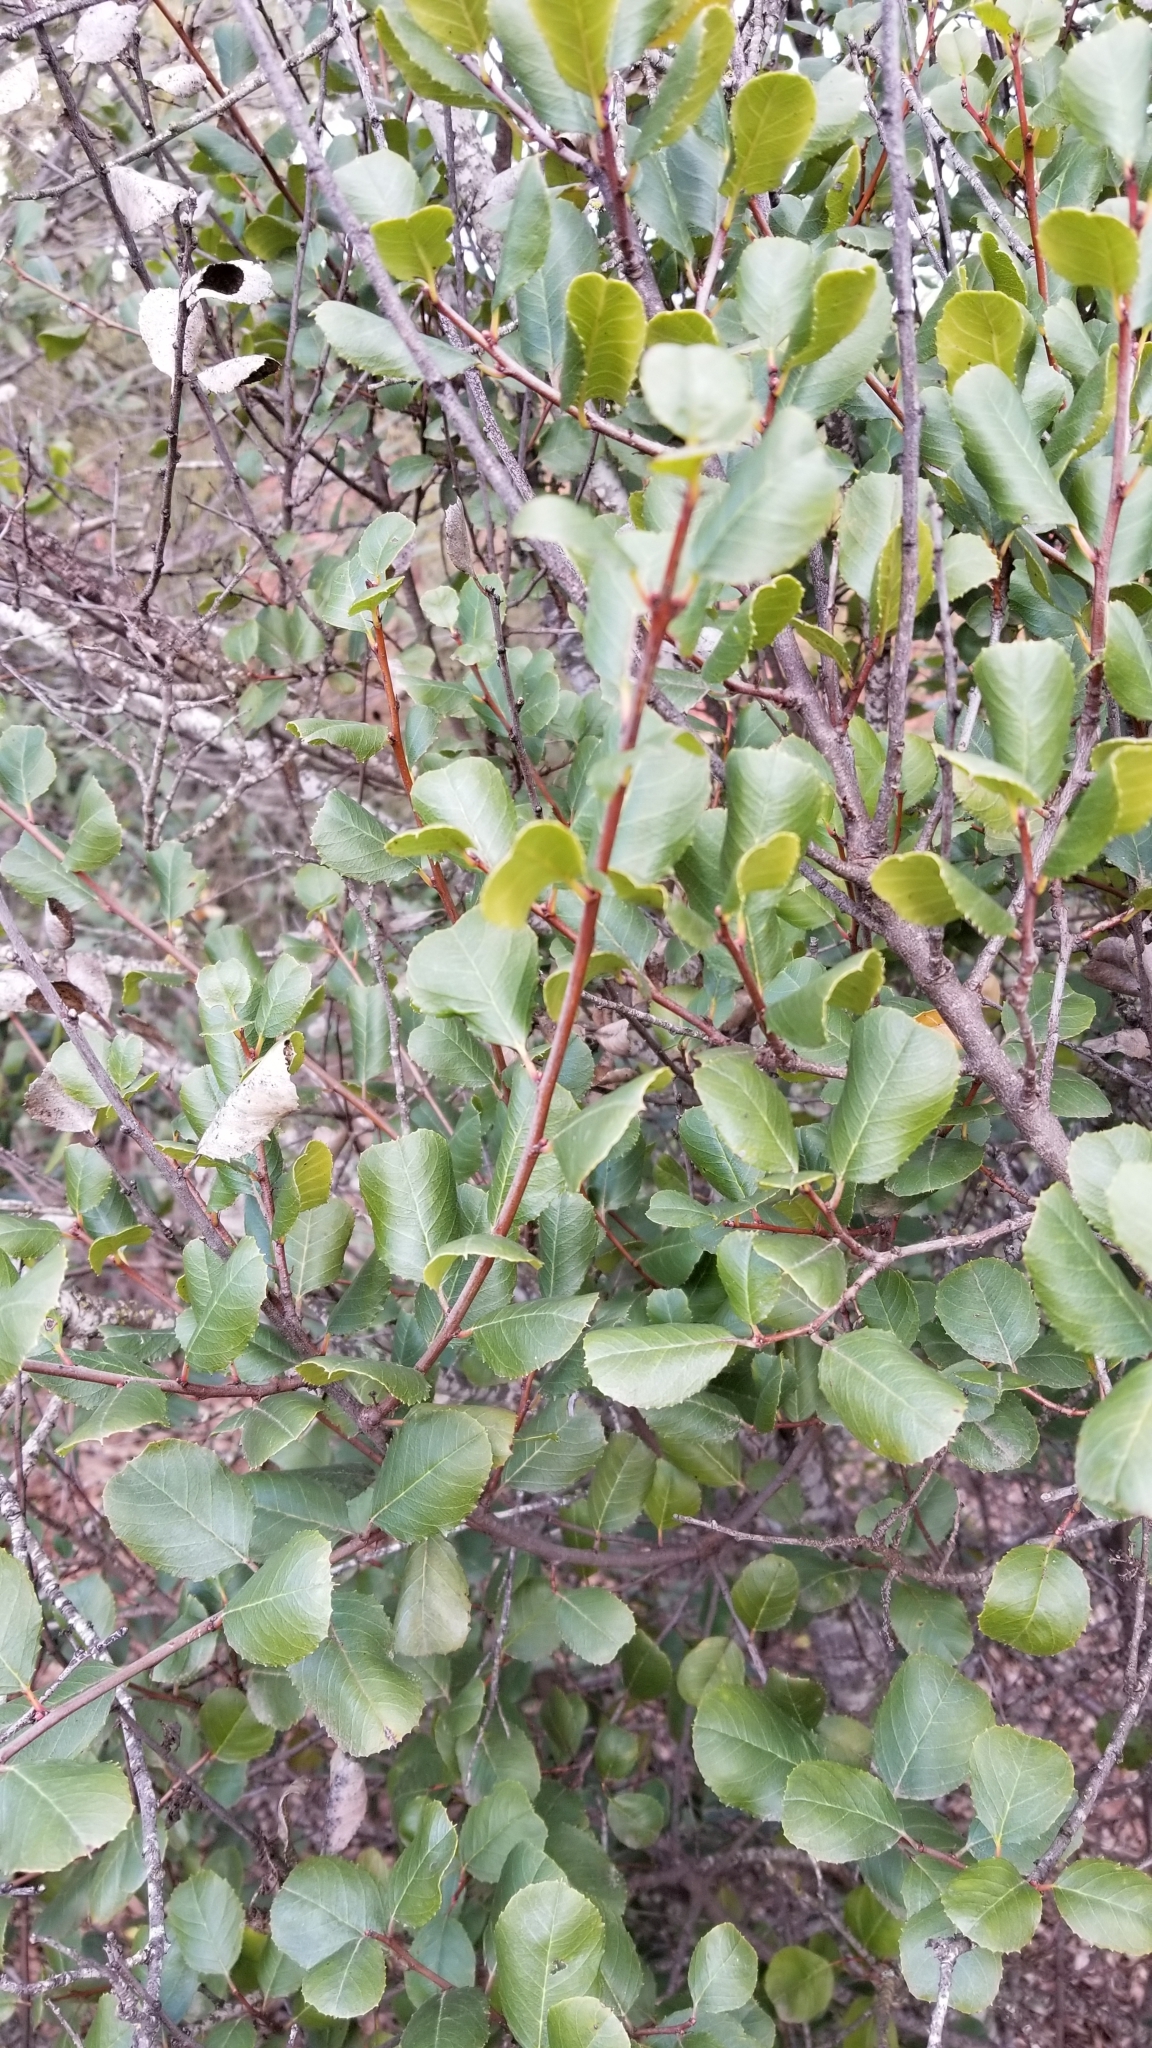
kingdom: Plantae
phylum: Tracheophyta
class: Magnoliopsida
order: Rosales
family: Rhamnaceae
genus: Endotropis
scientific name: Endotropis crocea
